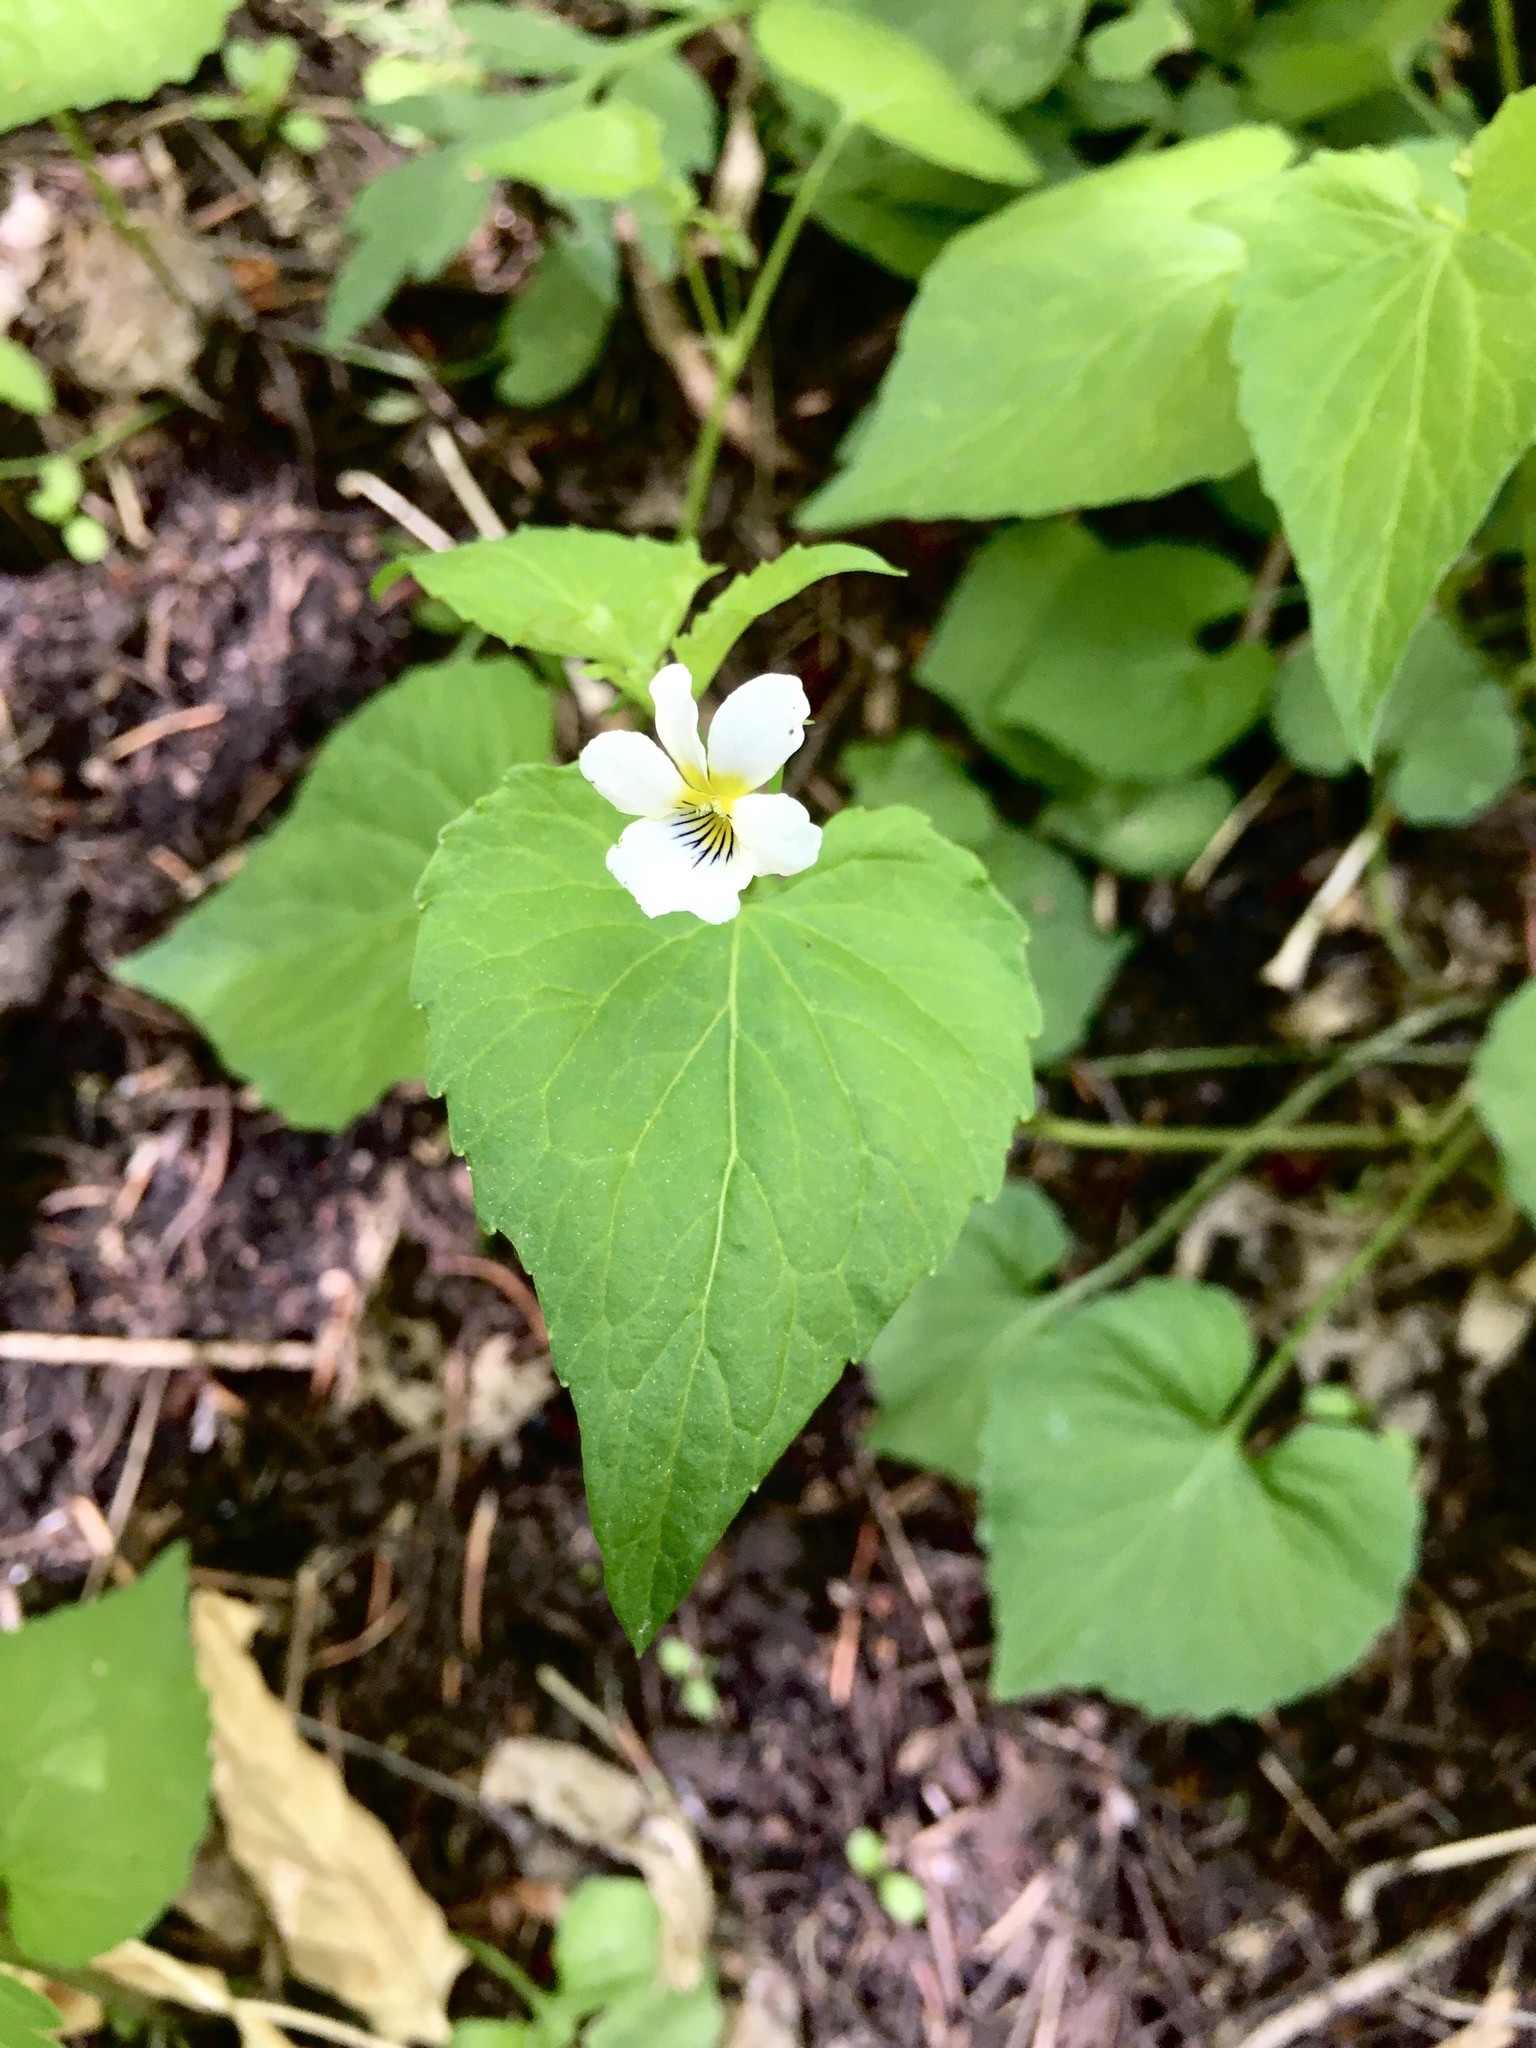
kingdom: Plantae
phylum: Tracheophyta
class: Magnoliopsida
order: Malpighiales
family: Violaceae
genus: Viola
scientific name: Viola canadensis
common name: Canada violet
